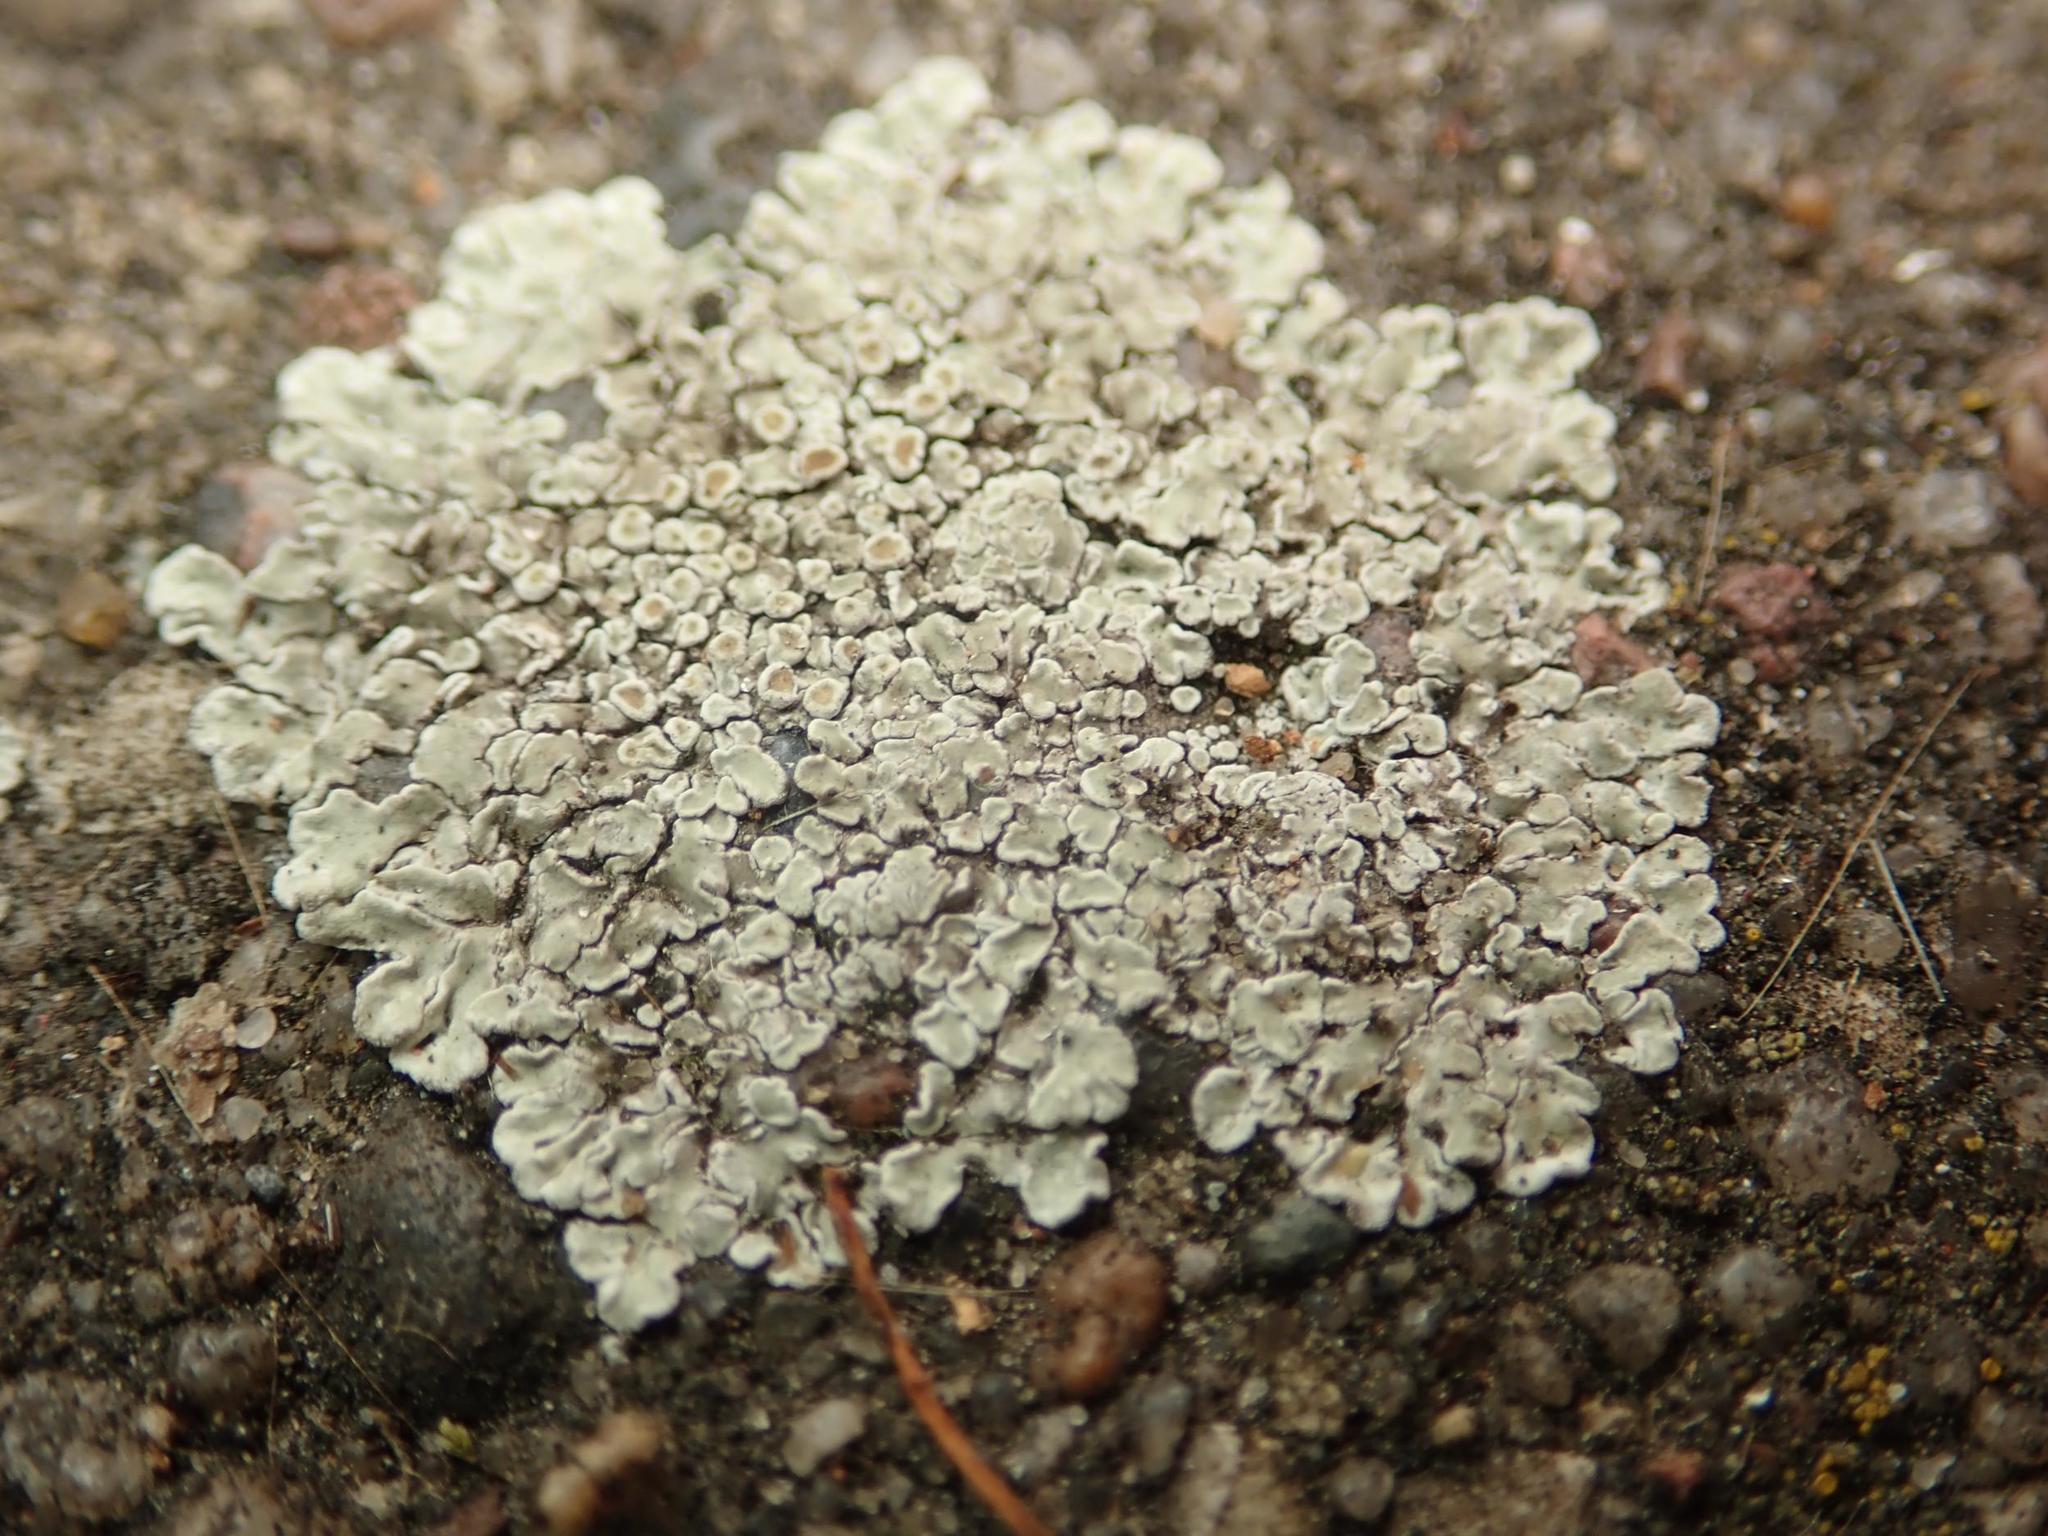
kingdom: Fungi
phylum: Ascomycota
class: Lecanoromycetes
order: Lecanorales
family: Lecanoraceae
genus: Protoparmeliopsis
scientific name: Protoparmeliopsis muralis
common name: Stonewall rim lichen
